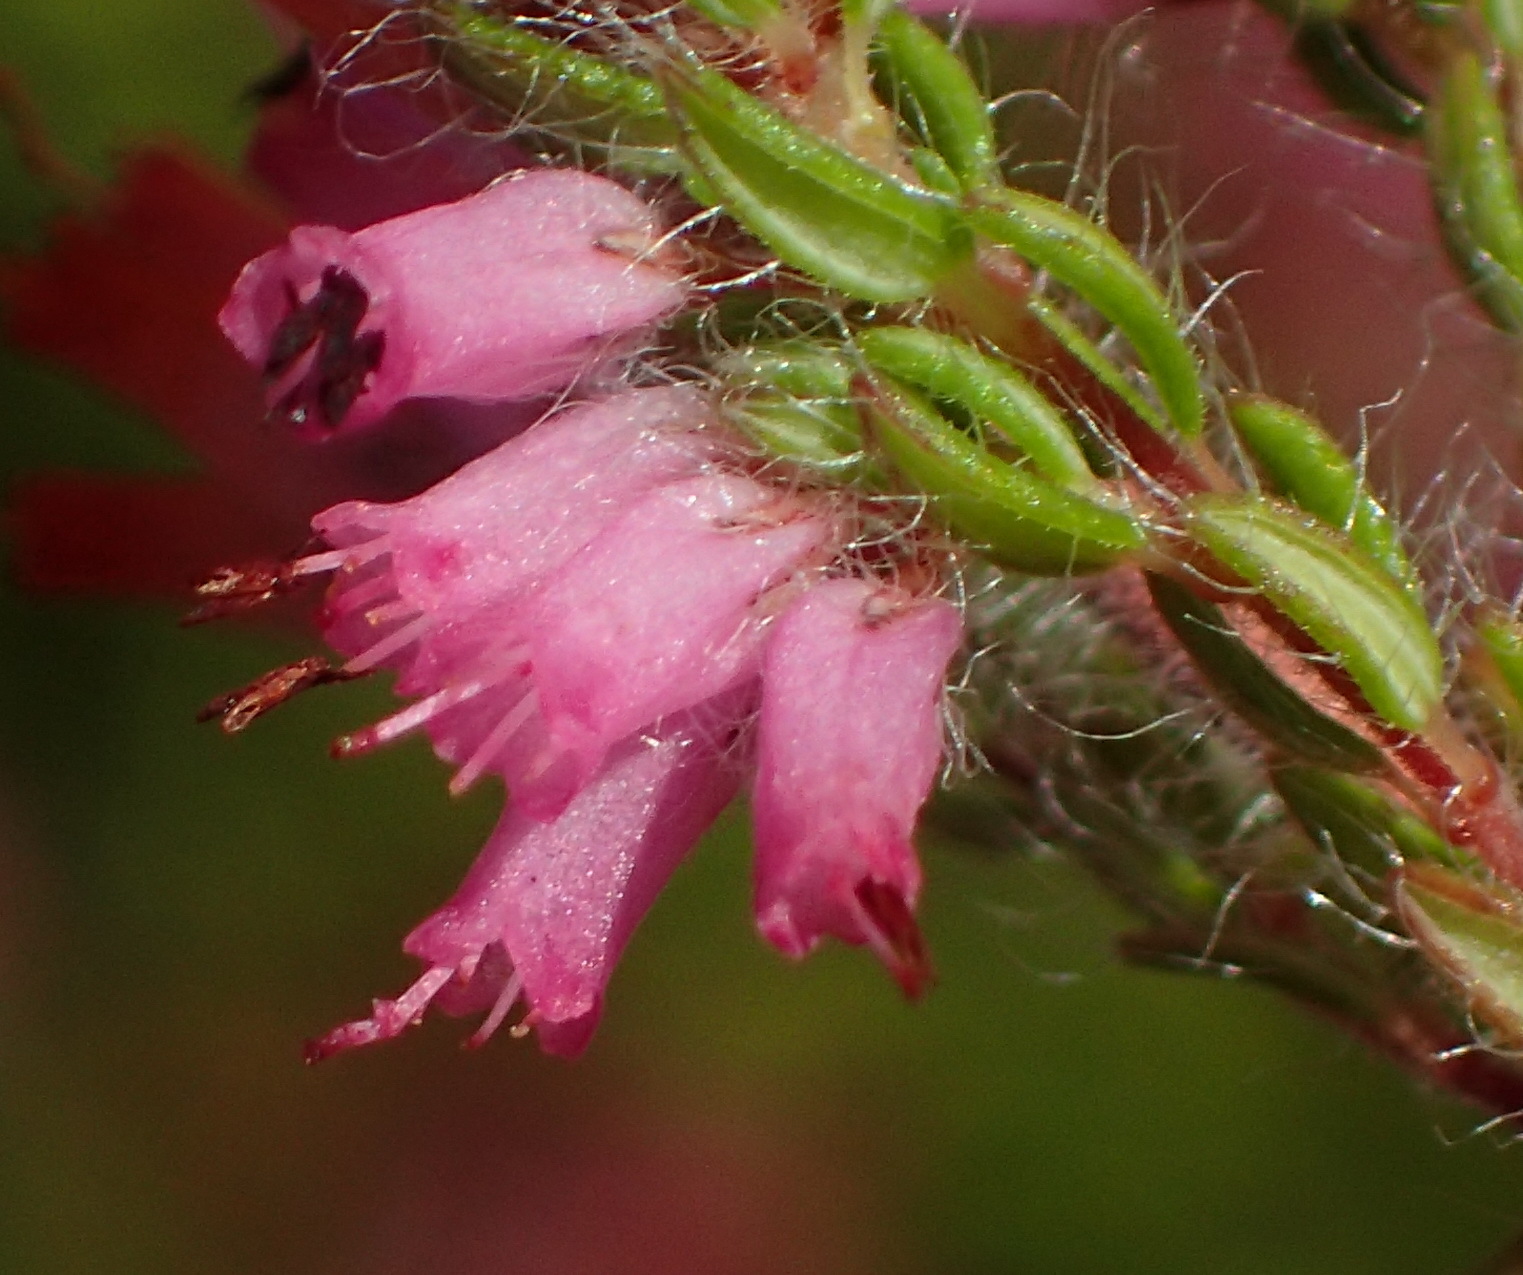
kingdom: Plantae
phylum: Tracheophyta
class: Magnoliopsida
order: Ericales
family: Ericaceae
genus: Erica
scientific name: Erica longimontana
